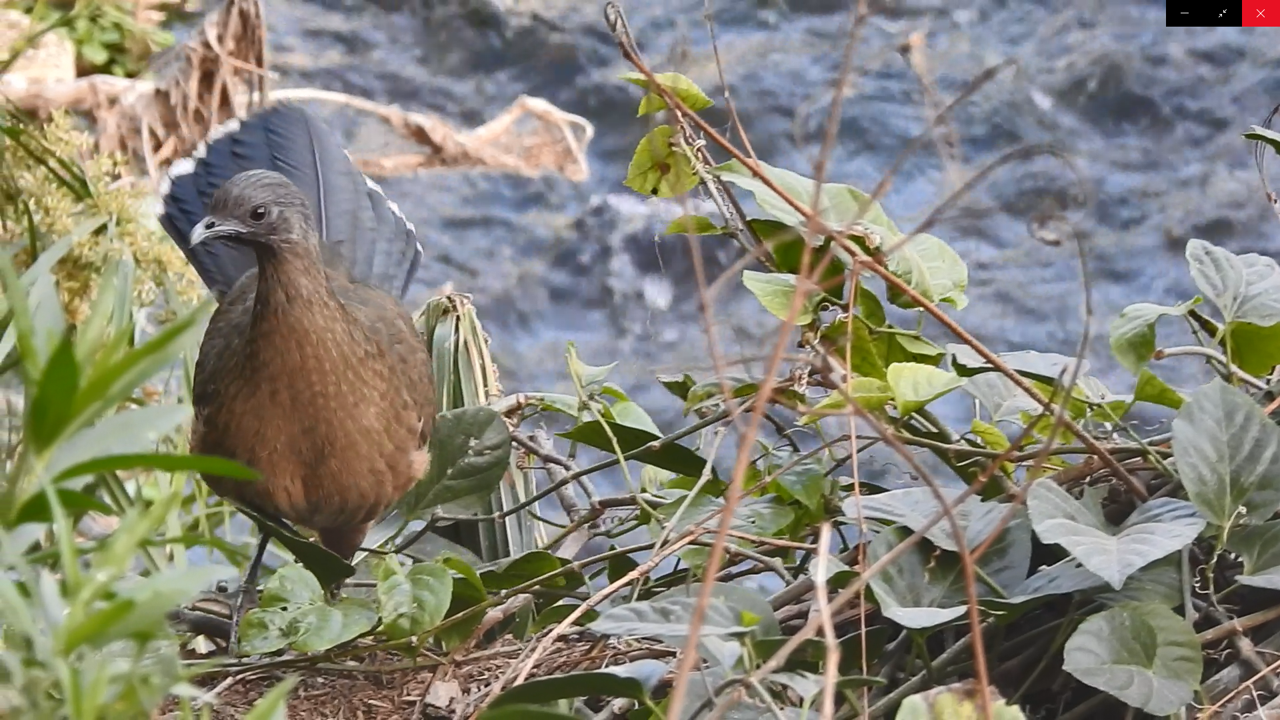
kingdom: Animalia
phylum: Chordata
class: Aves
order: Galliformes
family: Cracidae
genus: Ortalis
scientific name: Ortalis vetula
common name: Plain chachalaca
